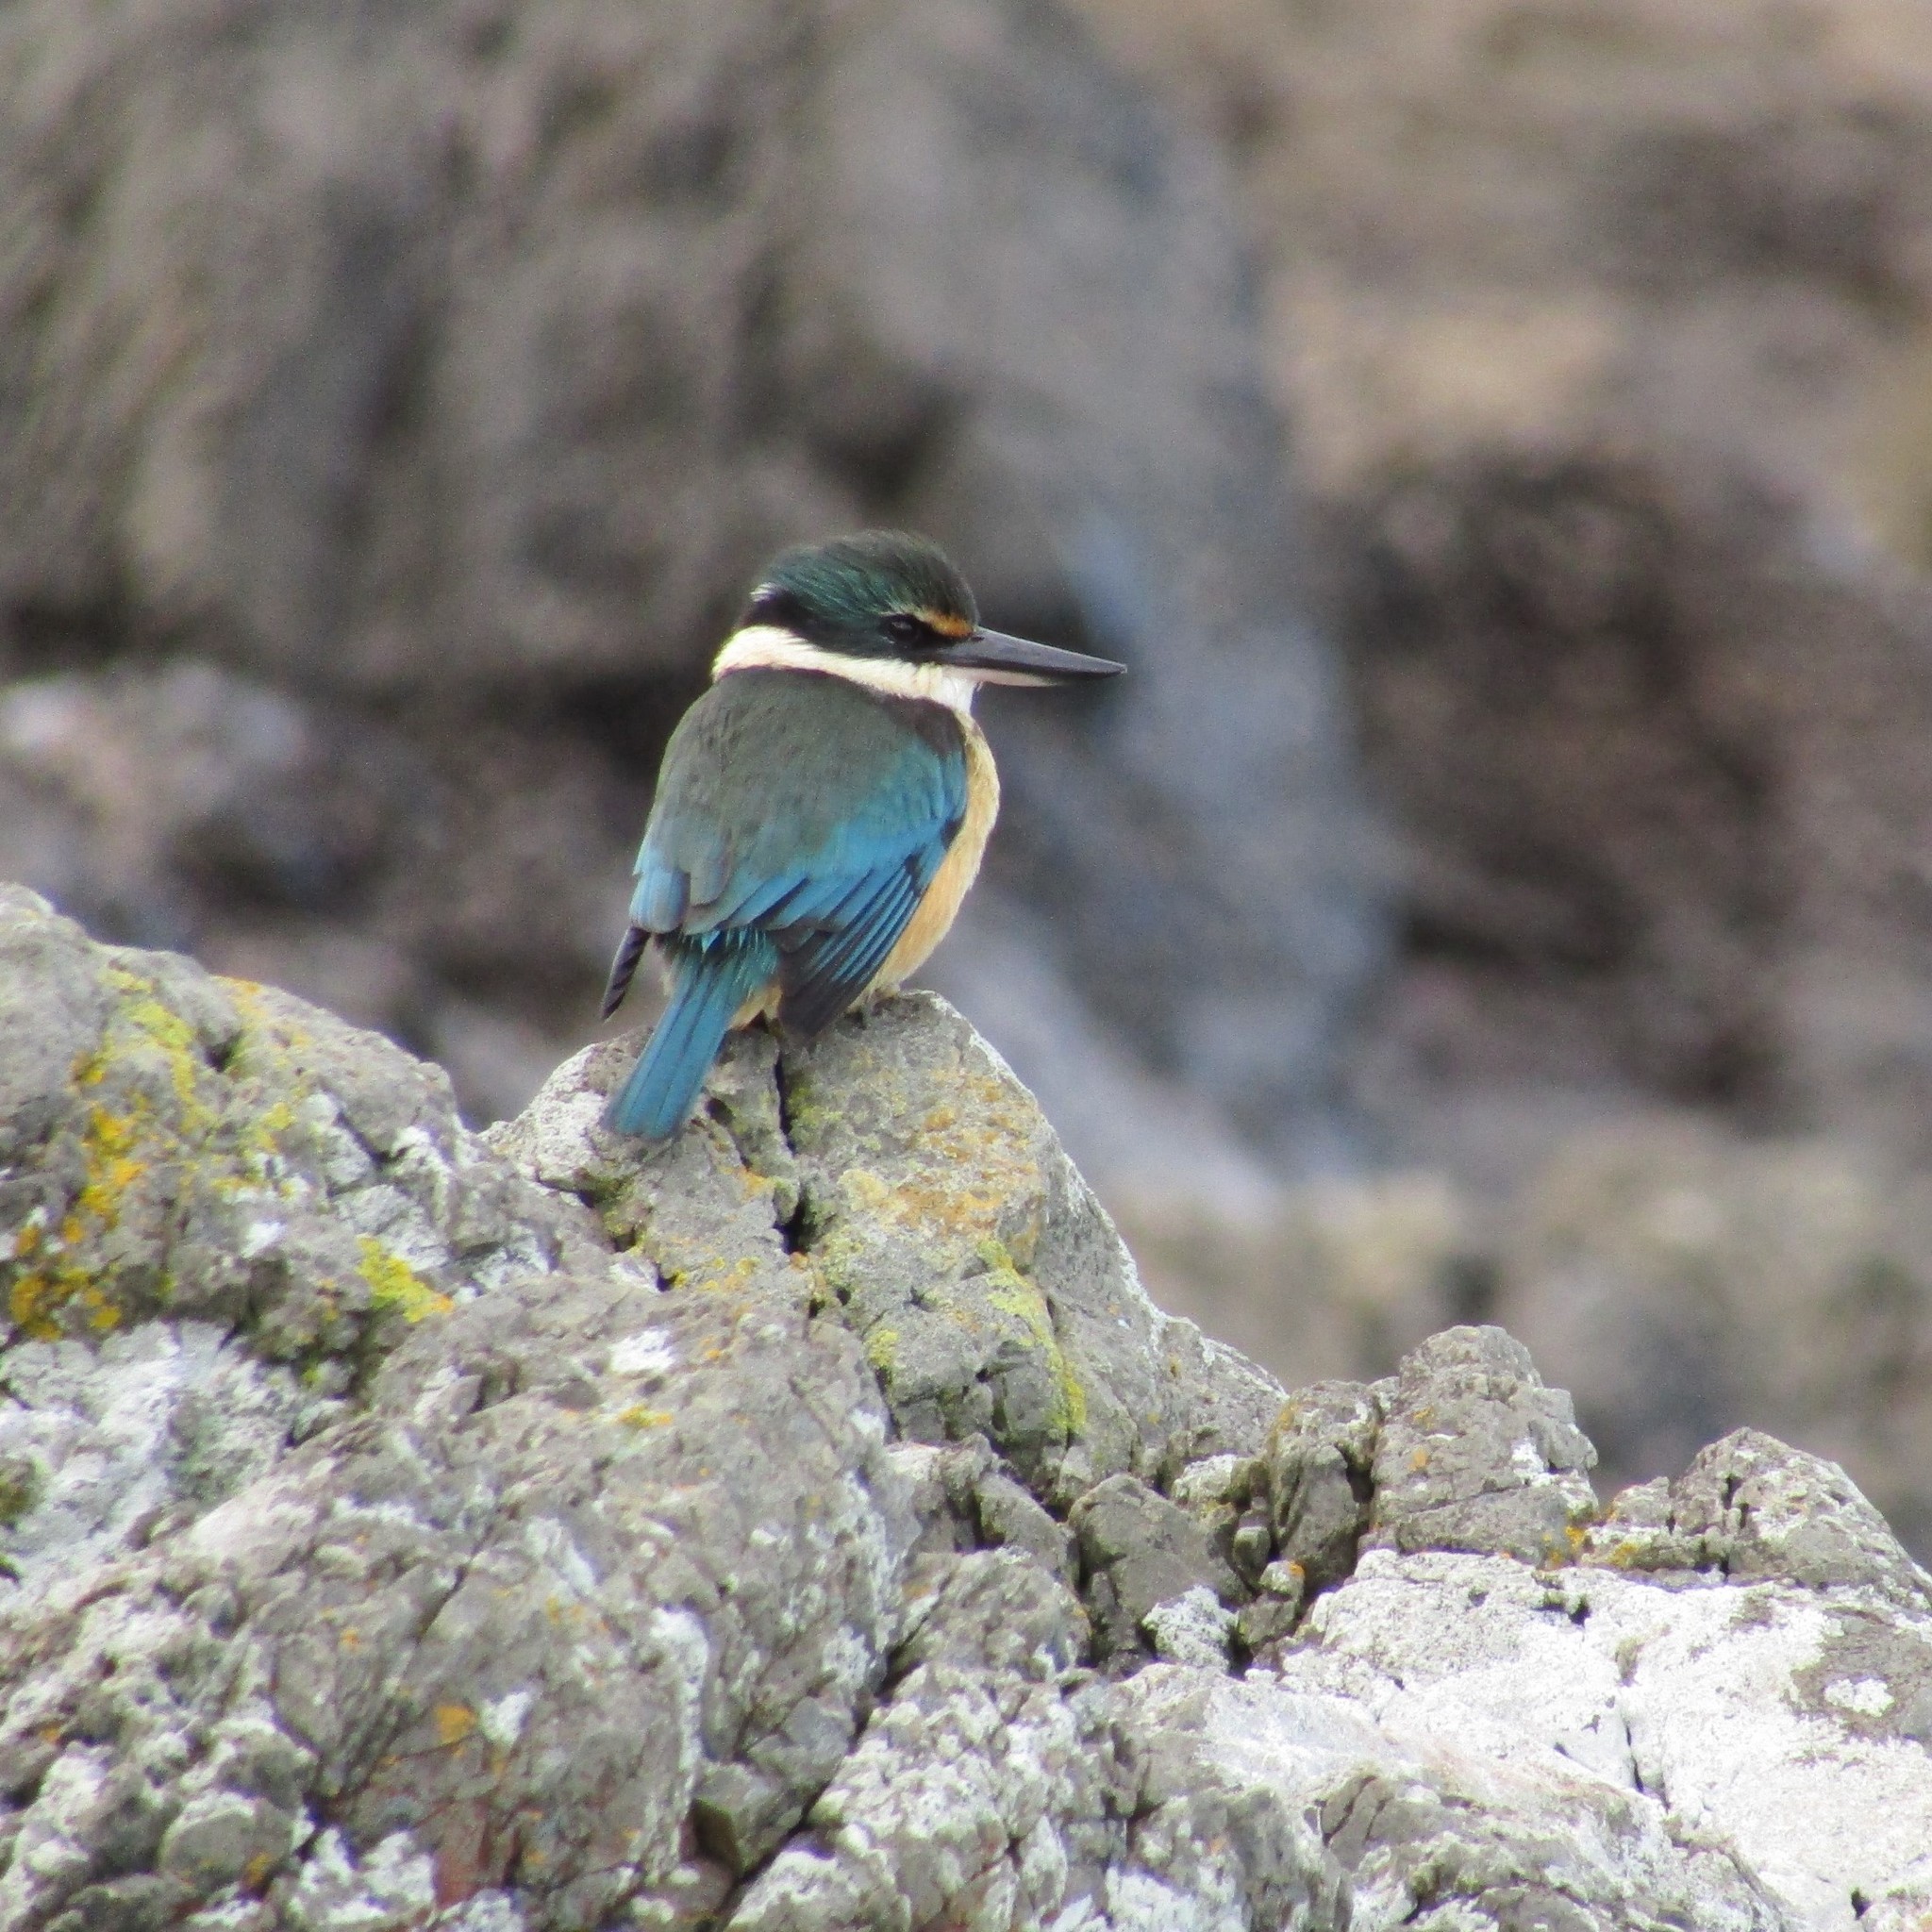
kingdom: Animalia
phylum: Chordata
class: Aves
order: Coraciiformes
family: Alcedinidae
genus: Todiramphus
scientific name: Todiramphus sanctus
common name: Sacred kingfisher
